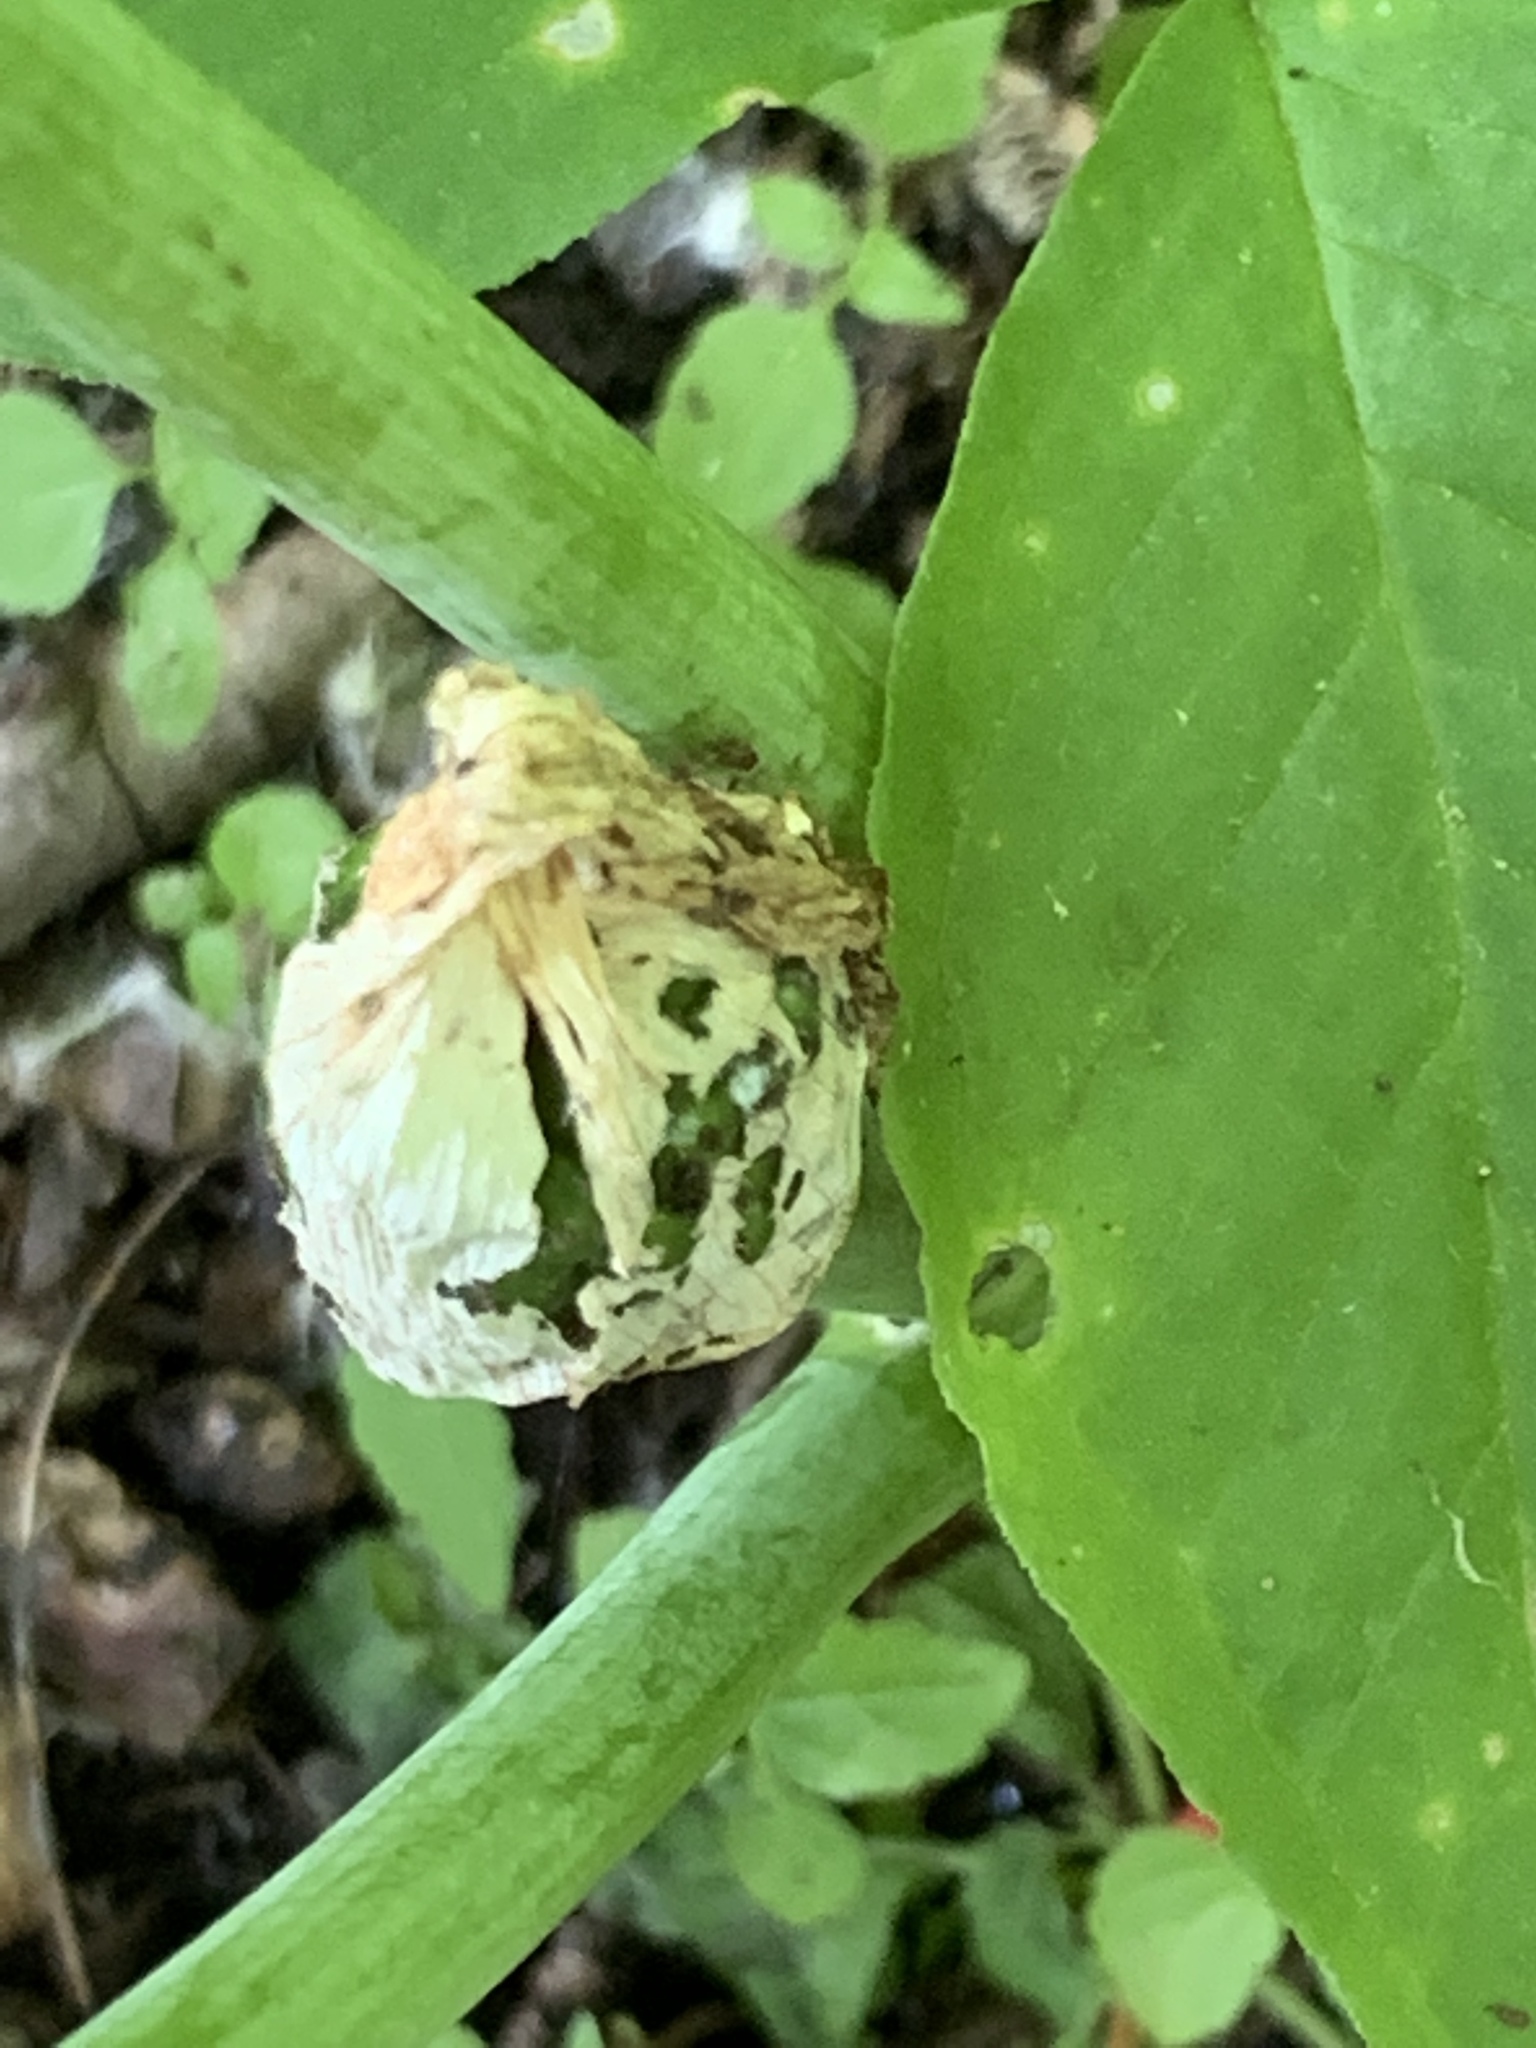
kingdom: Plantae
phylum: Tracheophyta
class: Liliopsida
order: Alismatales
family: Araceae
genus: Arisaema
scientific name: Arisaema triphyllum
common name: Jack-in-the-pulpit
